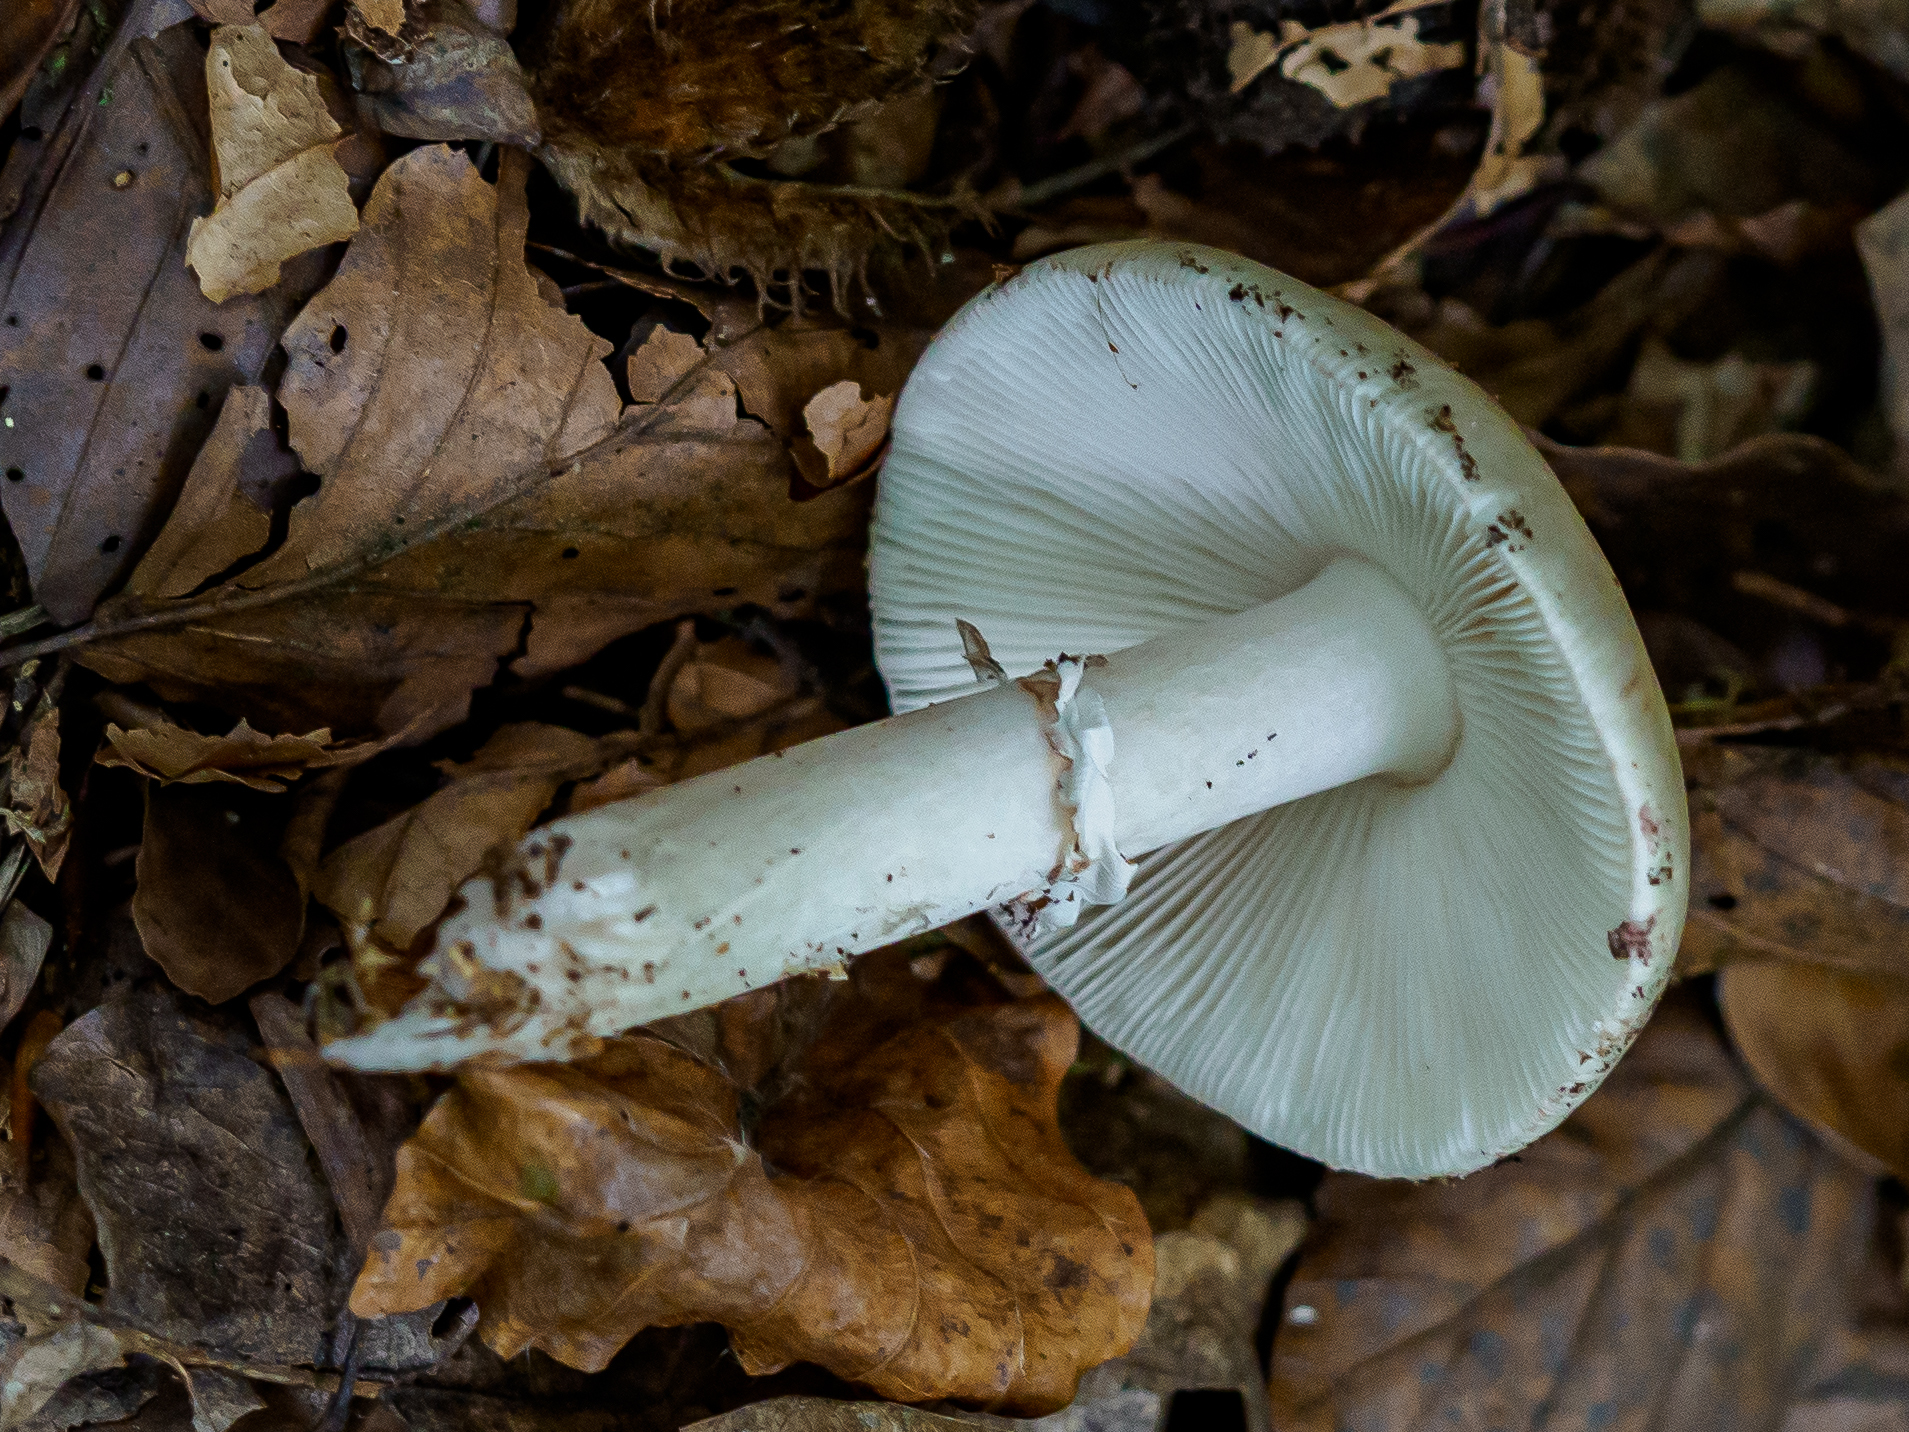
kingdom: Fungi
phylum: Basidiomycota
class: Agaricomycetes
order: Agaricales
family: Amanitaceae
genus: Amanita
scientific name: Amanita rubescens
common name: Blusher
